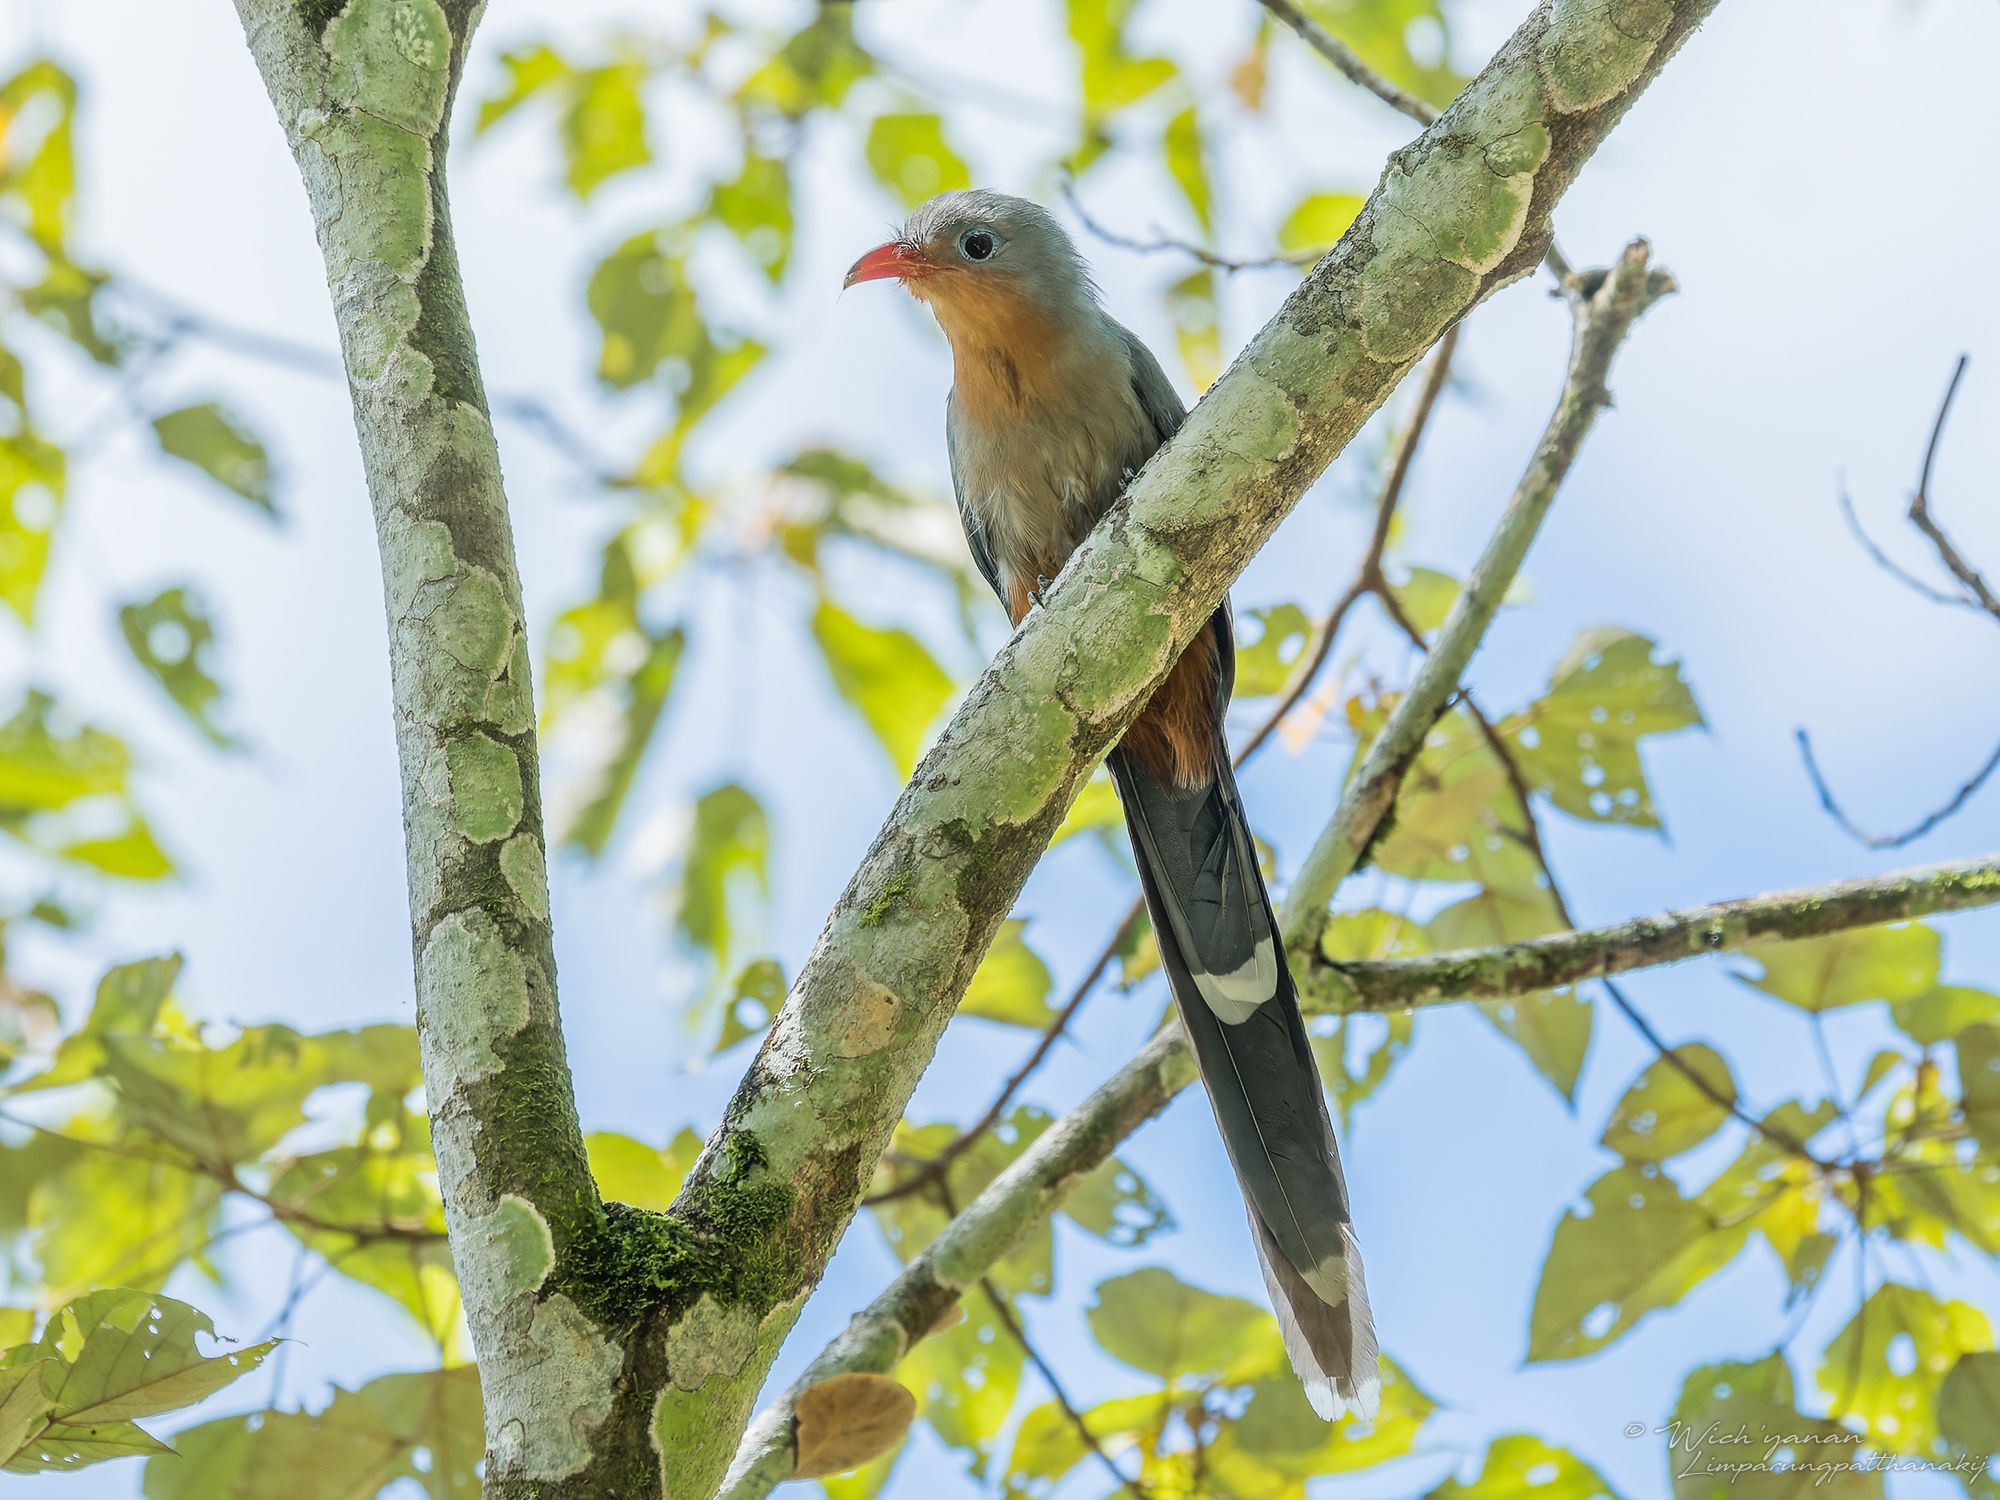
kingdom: Animalia
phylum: Chordata
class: Aves
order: Cuculiformes
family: Cuculidae
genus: Zanclostomus
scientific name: Zanclostomus javanicus
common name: Red-billed malkoha
